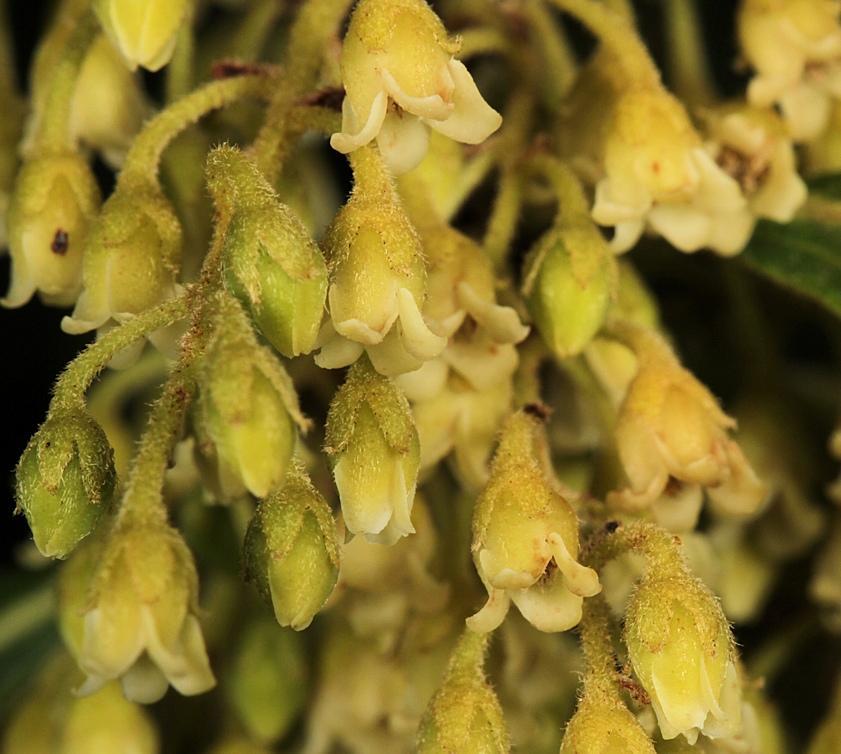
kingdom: Plantae
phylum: Tracheophyta
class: Magnoliopsida
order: Ericales
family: Ebenaceae
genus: Euclea
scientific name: Euclea natalensis
